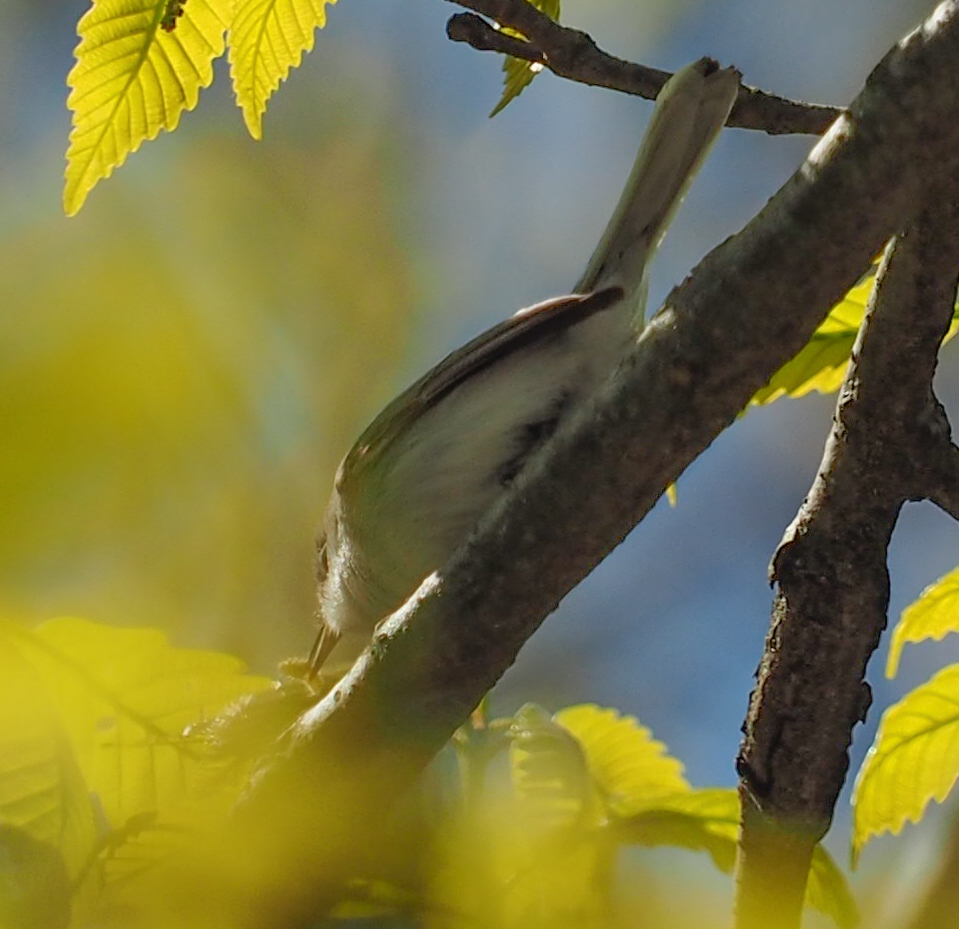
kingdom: Animalia
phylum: Chordata
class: Aves
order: Passeriformes
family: Polioptilidae
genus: Polioptila
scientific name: Polioptila caerulea
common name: Blue-gray gnatcatcher
